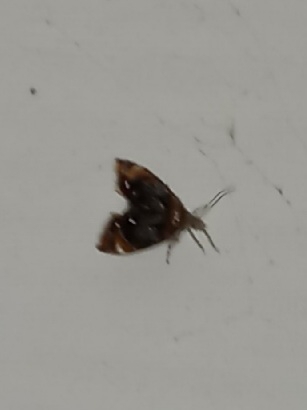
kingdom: Animalia
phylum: Arthropoda
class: Insecta
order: Lepidoptera
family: Choreutidae
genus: Prochoreutis
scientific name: Prochoreutis inflatella
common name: Skullcap skeletonizer moth
